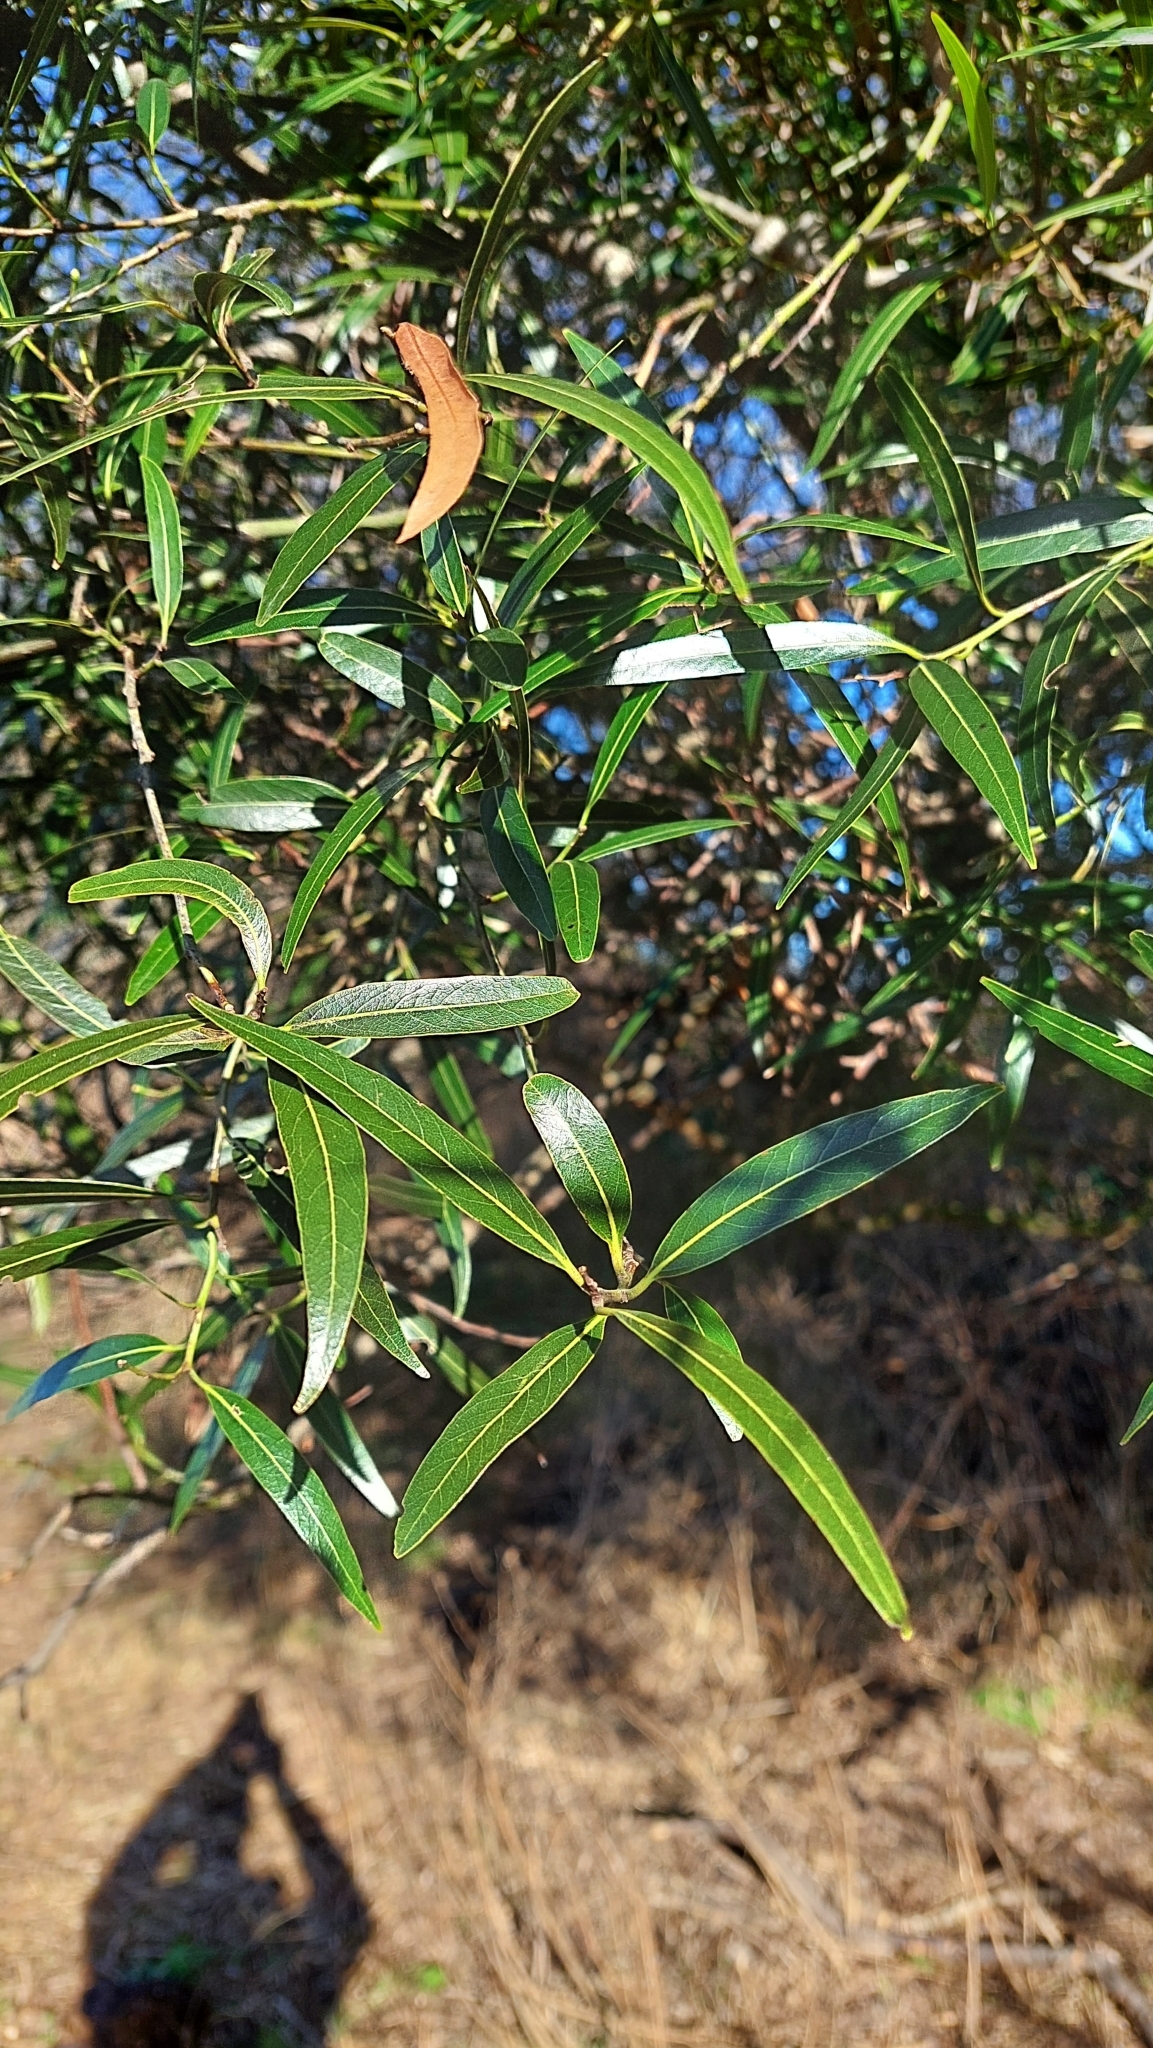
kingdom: Plantae
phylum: Tracheophyta
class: Magnoliopsida
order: Laurales
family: Lauraceae
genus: Nectandra
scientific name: Nectandra angustifolia
